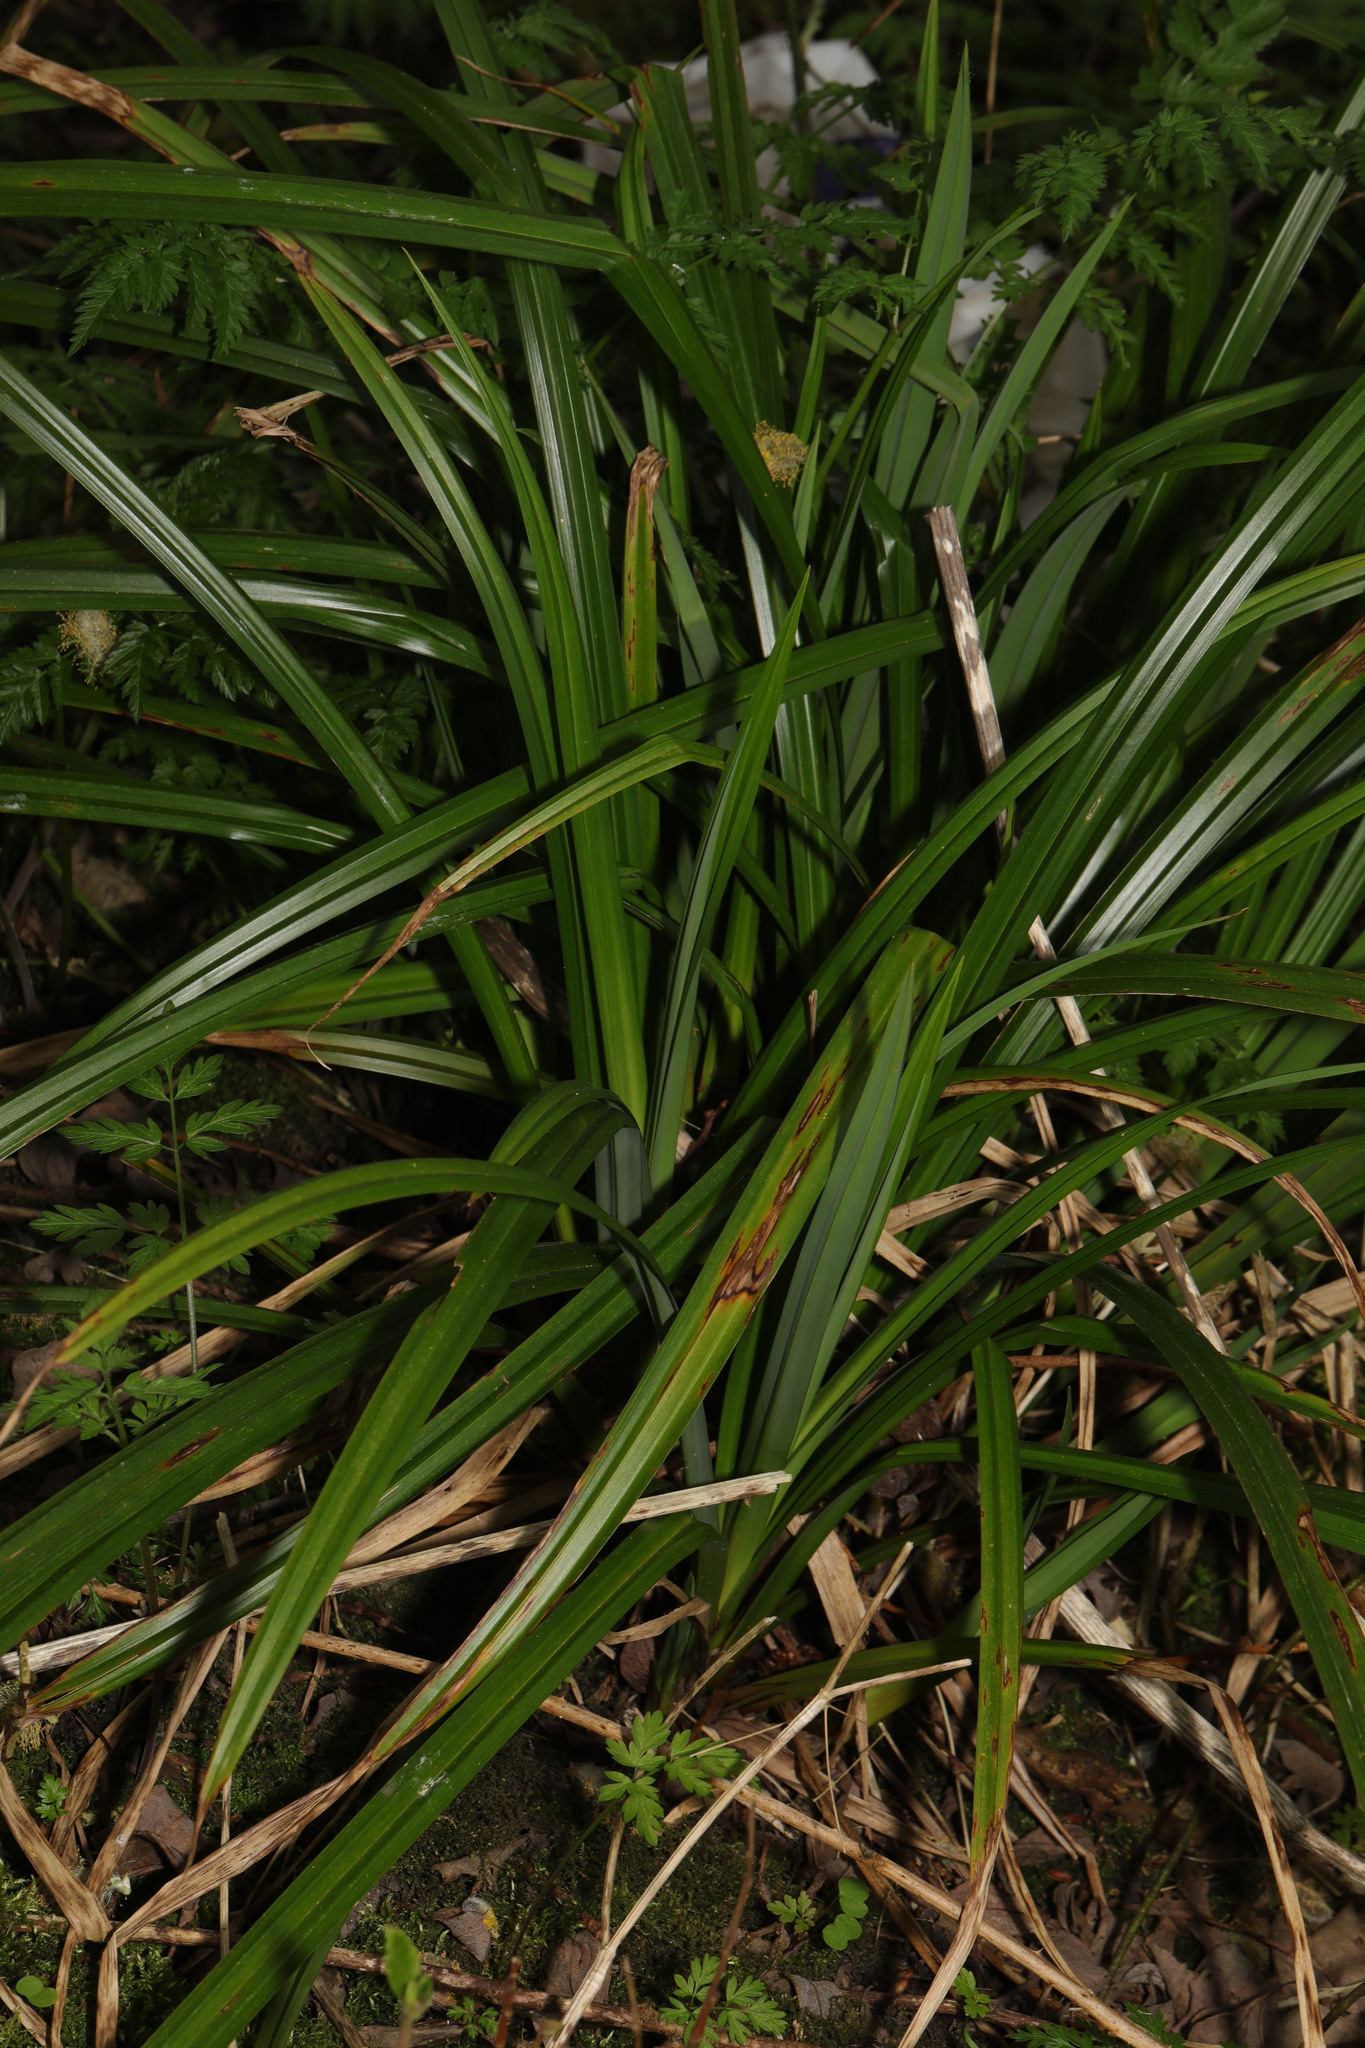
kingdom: Plantae
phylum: Tracheophyta
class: Liliopsida
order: Poales
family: Cyperaceae
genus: Carex
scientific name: Carex pendula
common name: Pendulous sedge
